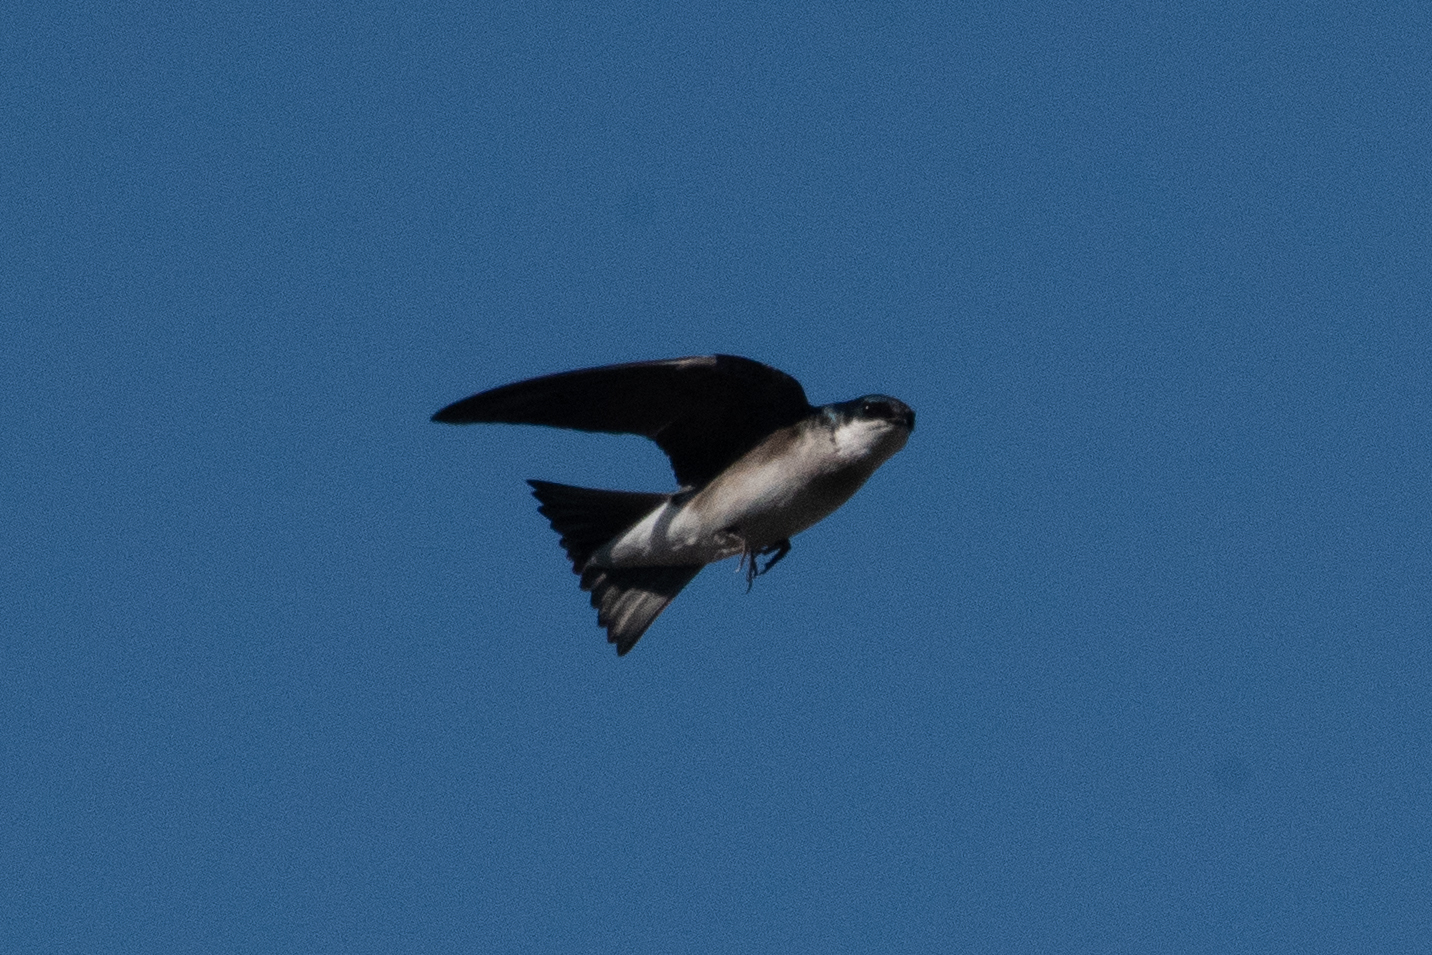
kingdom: Animalia
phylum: Chordata
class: Aves
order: Passeriformes
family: Hirundinidae
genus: Tachycineta
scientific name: Tachycineta bicolor
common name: Tree swallow
